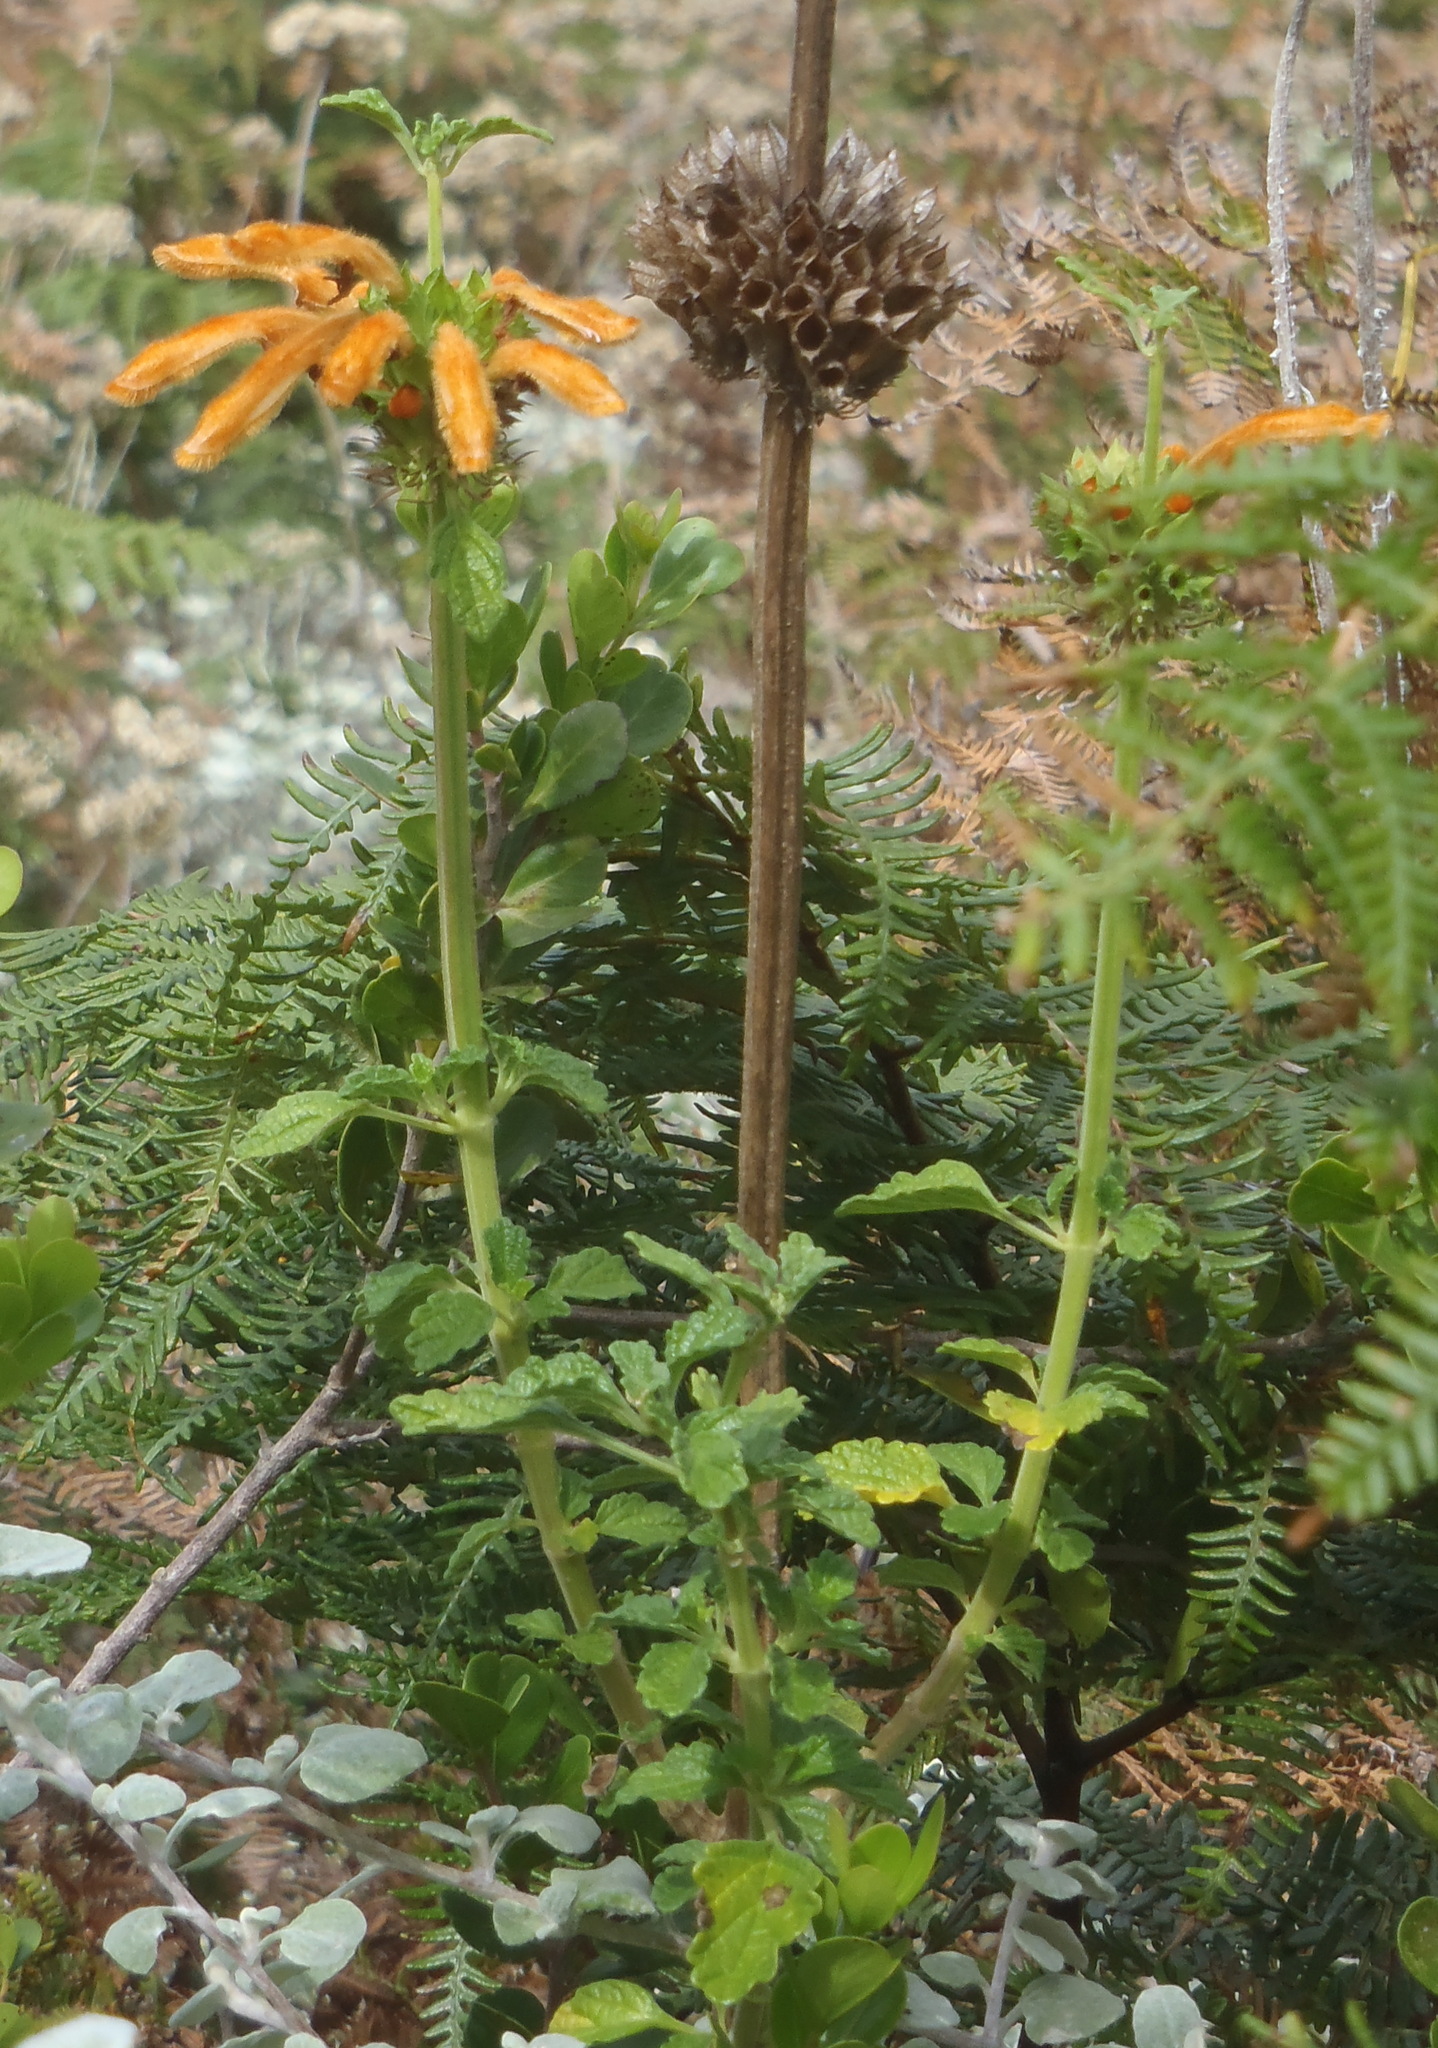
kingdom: Plantae
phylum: Tracheophyta
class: Magnoliopsida
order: Lamiales
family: Lamiaceae
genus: Leonotis
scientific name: Leonotis ocymifolia
